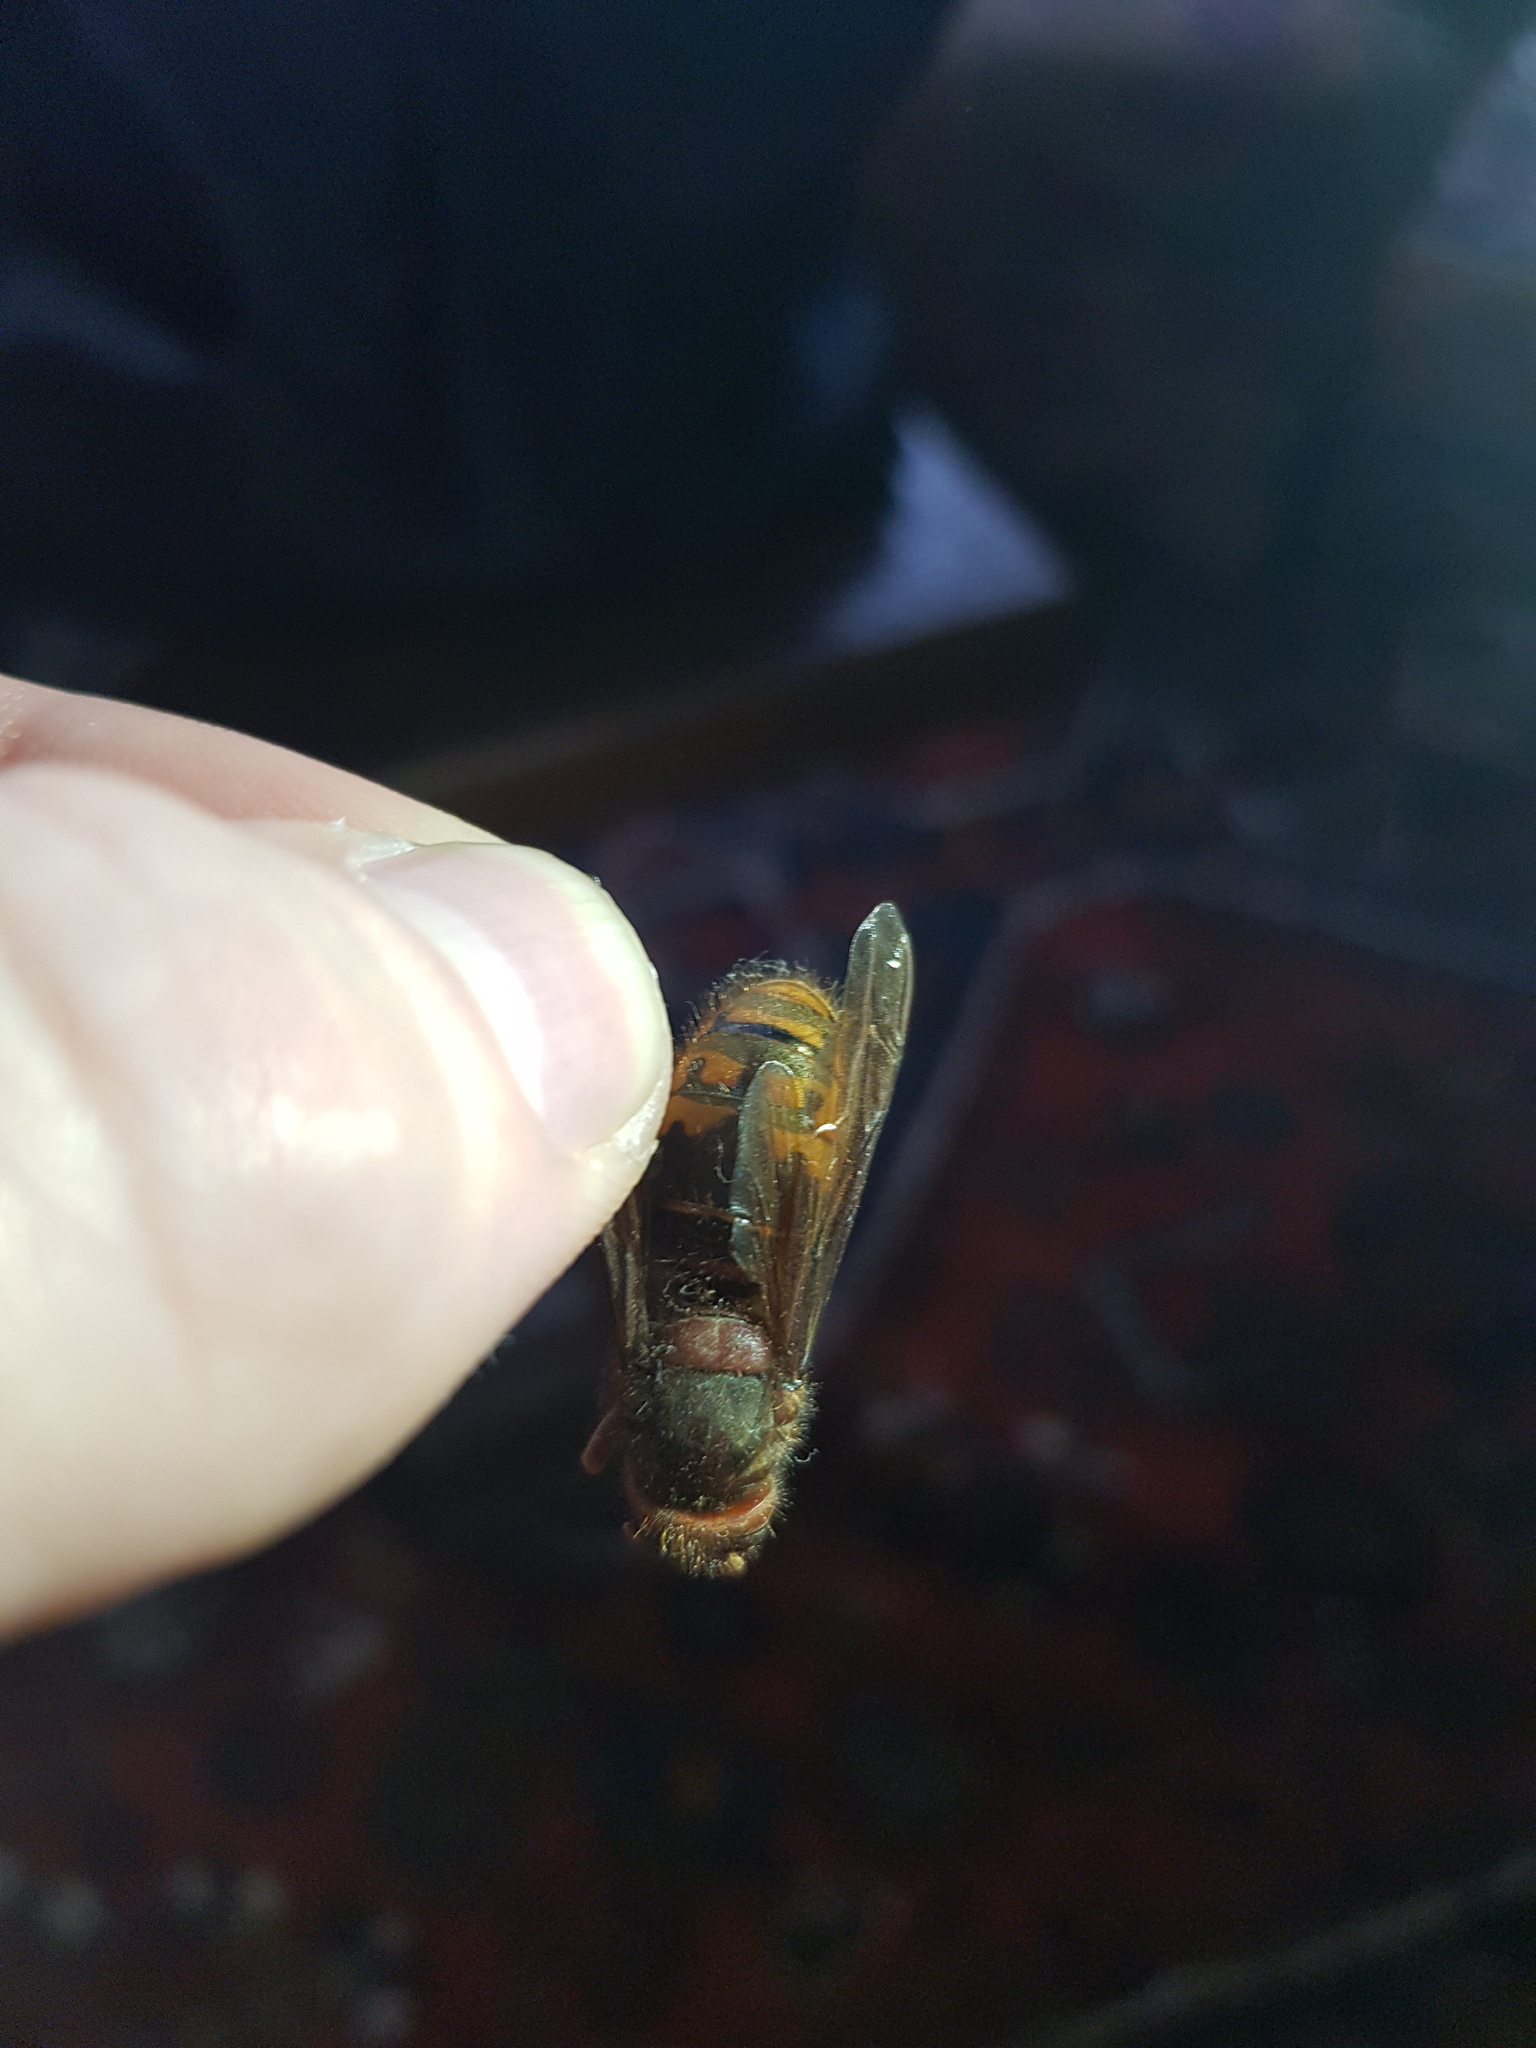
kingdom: Animalia
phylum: Arthropoda
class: Insecta
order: Hymenoptera
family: Vespidae
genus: Vespa
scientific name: Vespa crabro
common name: Hornet
